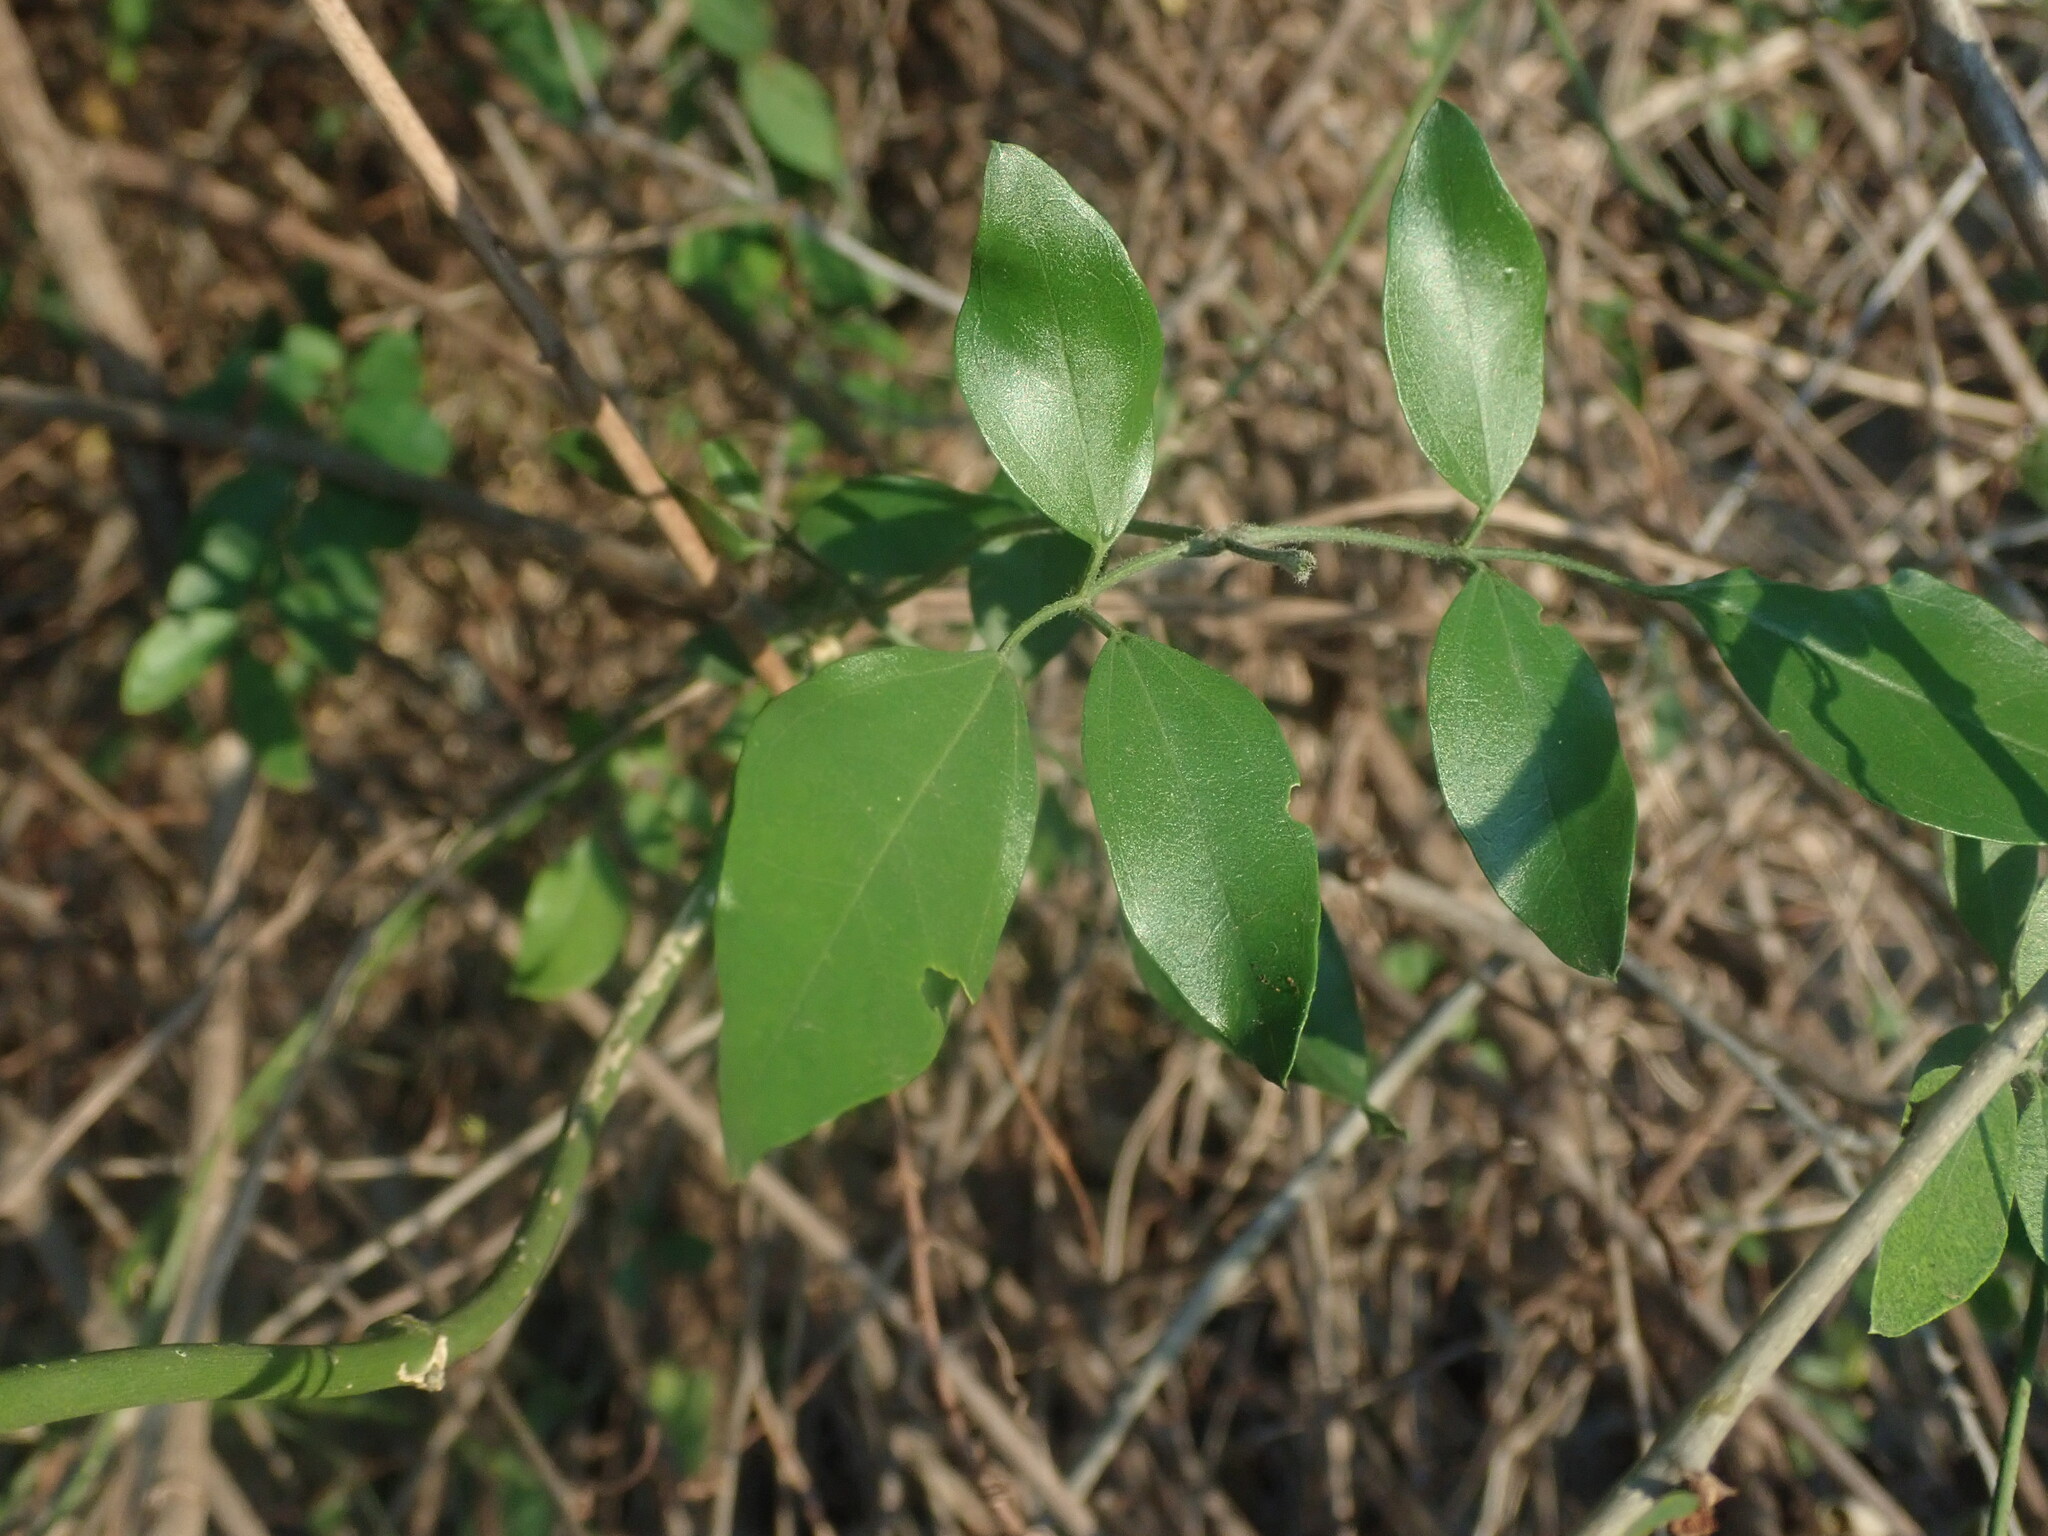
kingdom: Plantae
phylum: Tracheophyta
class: Magnoliopsida
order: Lamiales
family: Oleaceae
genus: Jasminum
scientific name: Jasminum fluminense
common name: Brazilian jasmine
